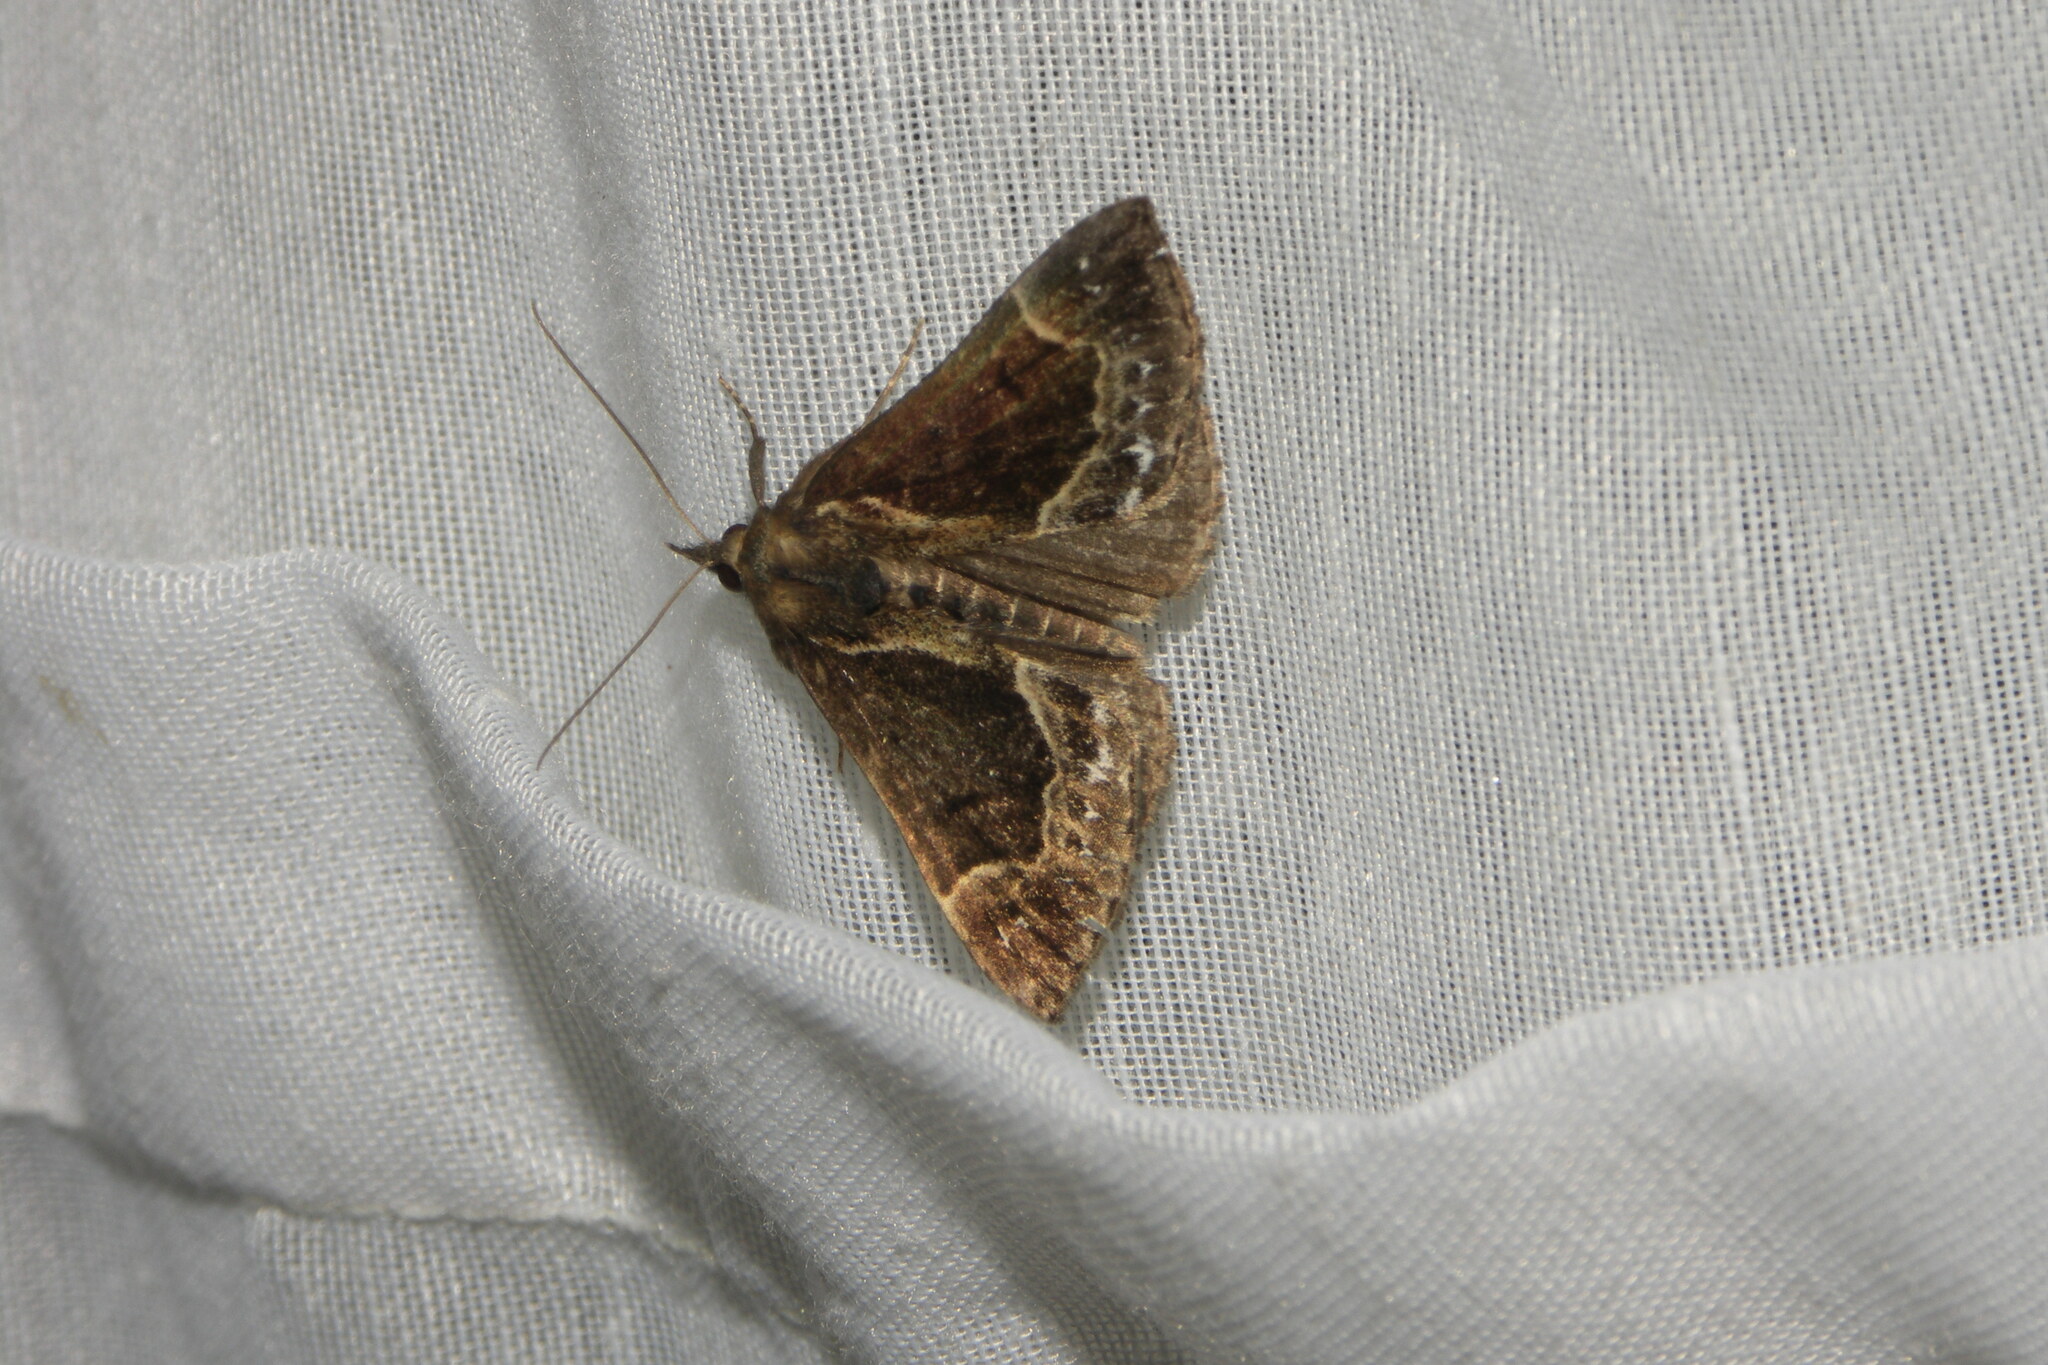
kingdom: Animalia
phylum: Arthropoda
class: Insecta
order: Lepidoptera
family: Erebidae
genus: Hypena
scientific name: Hypena crassalis
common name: Beautiful snout
